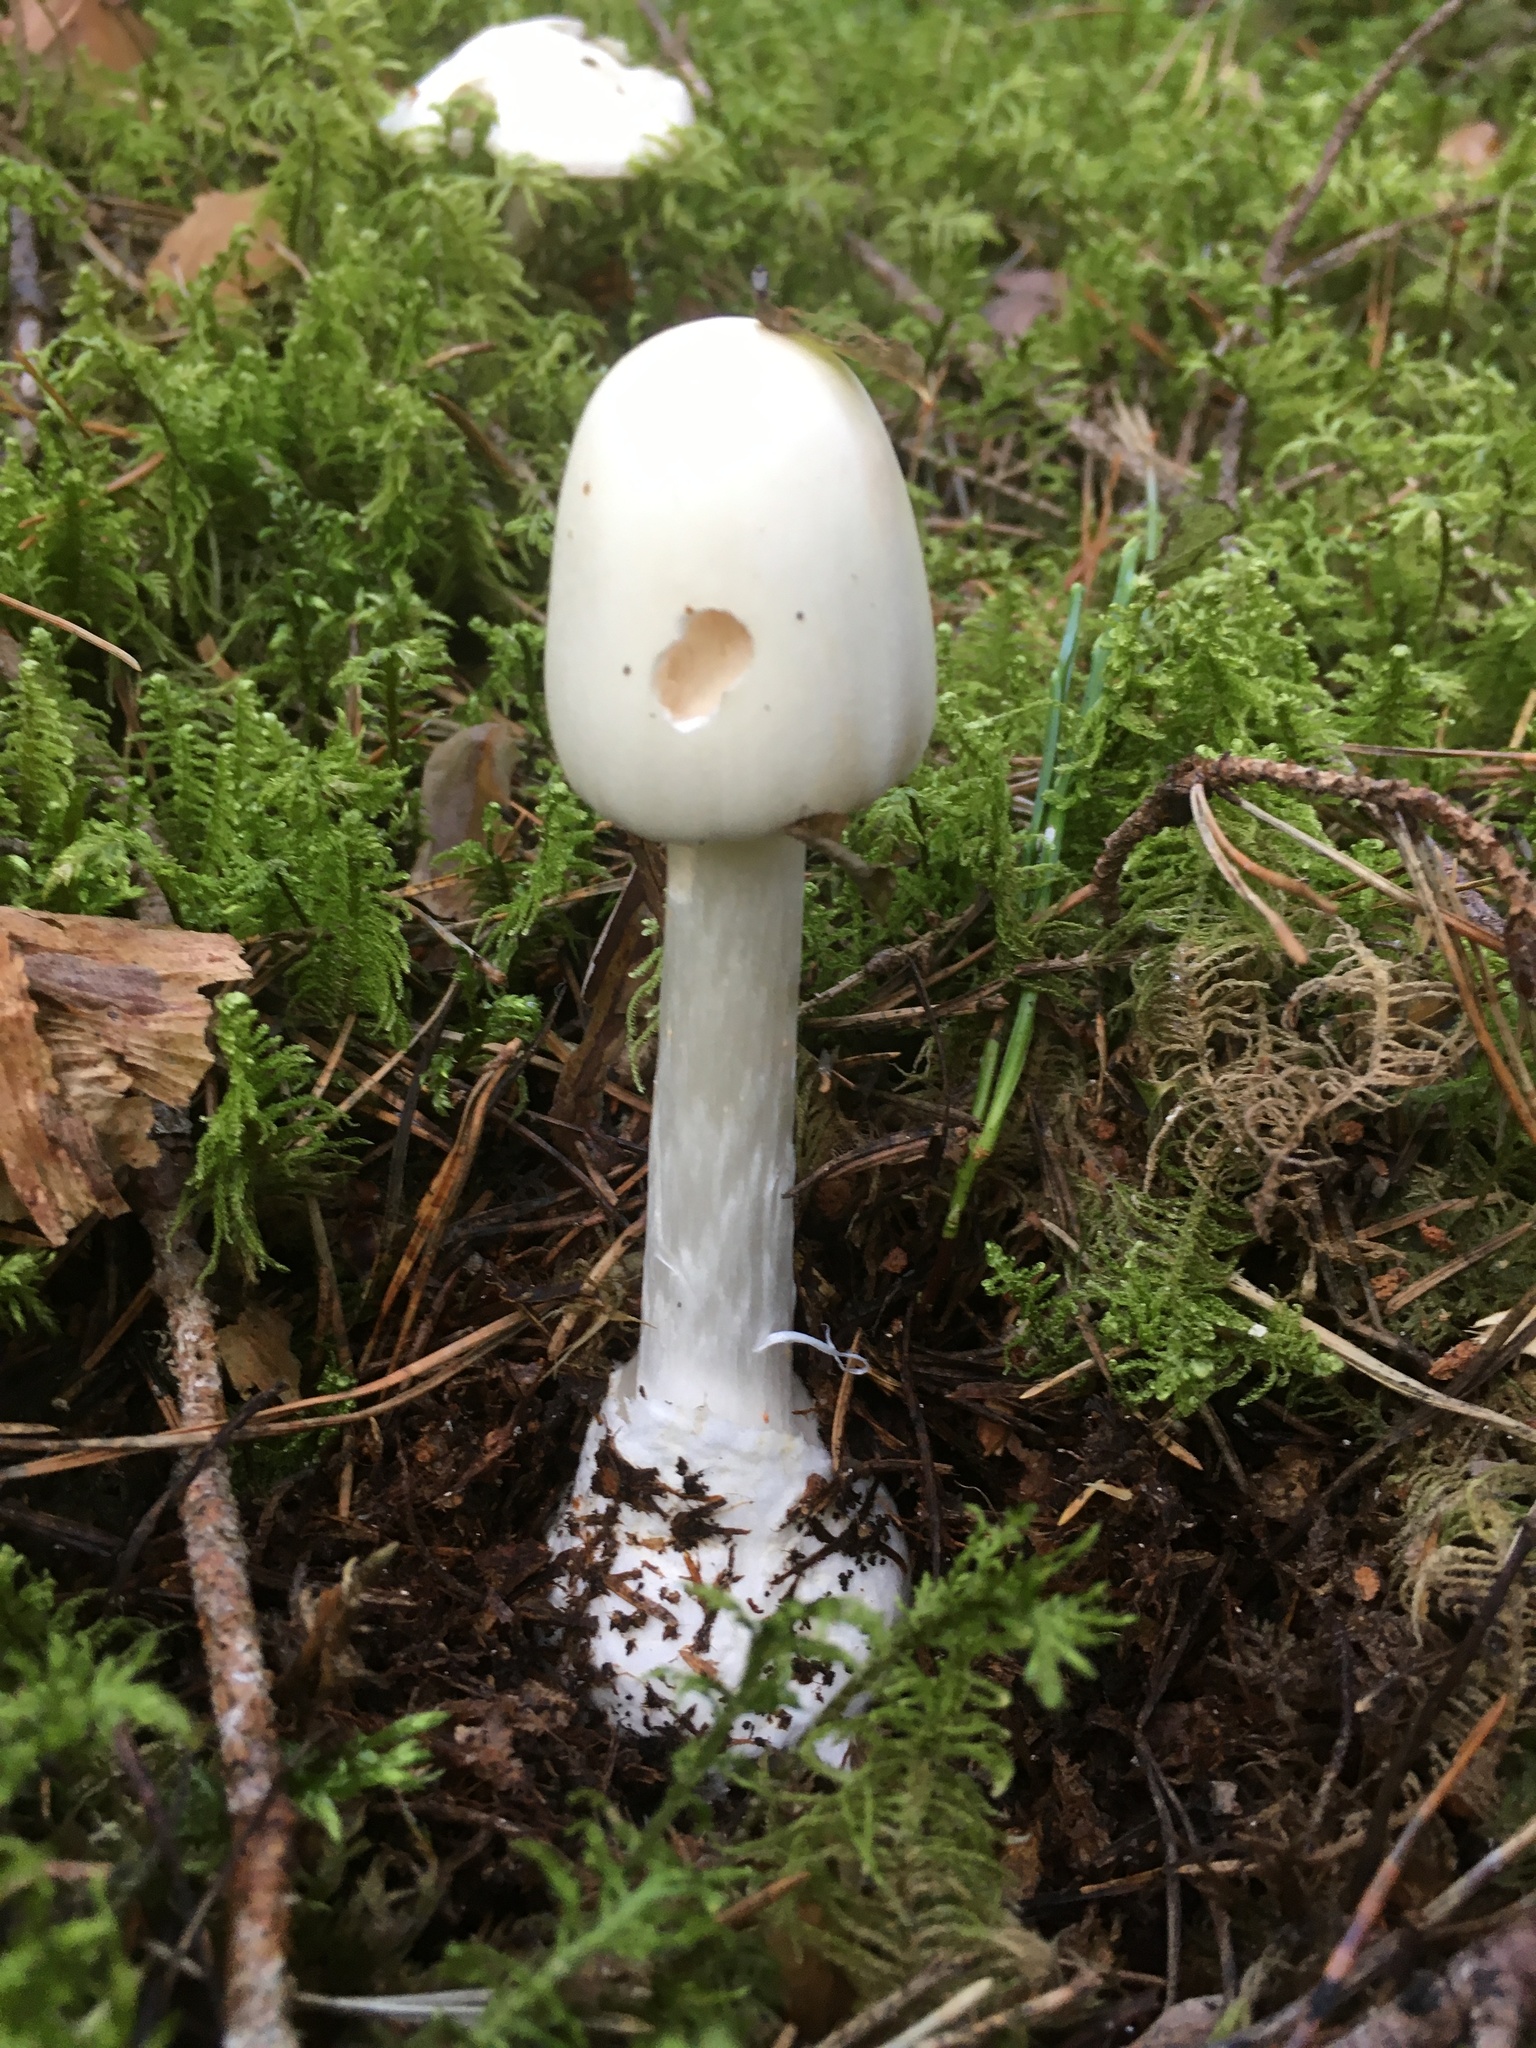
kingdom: Fungi
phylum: Basidiomycota
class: Agaricomycetes
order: Agaricales
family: Amanitaceae
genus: Amanita
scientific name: Amanita virosa
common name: Destroying angel
